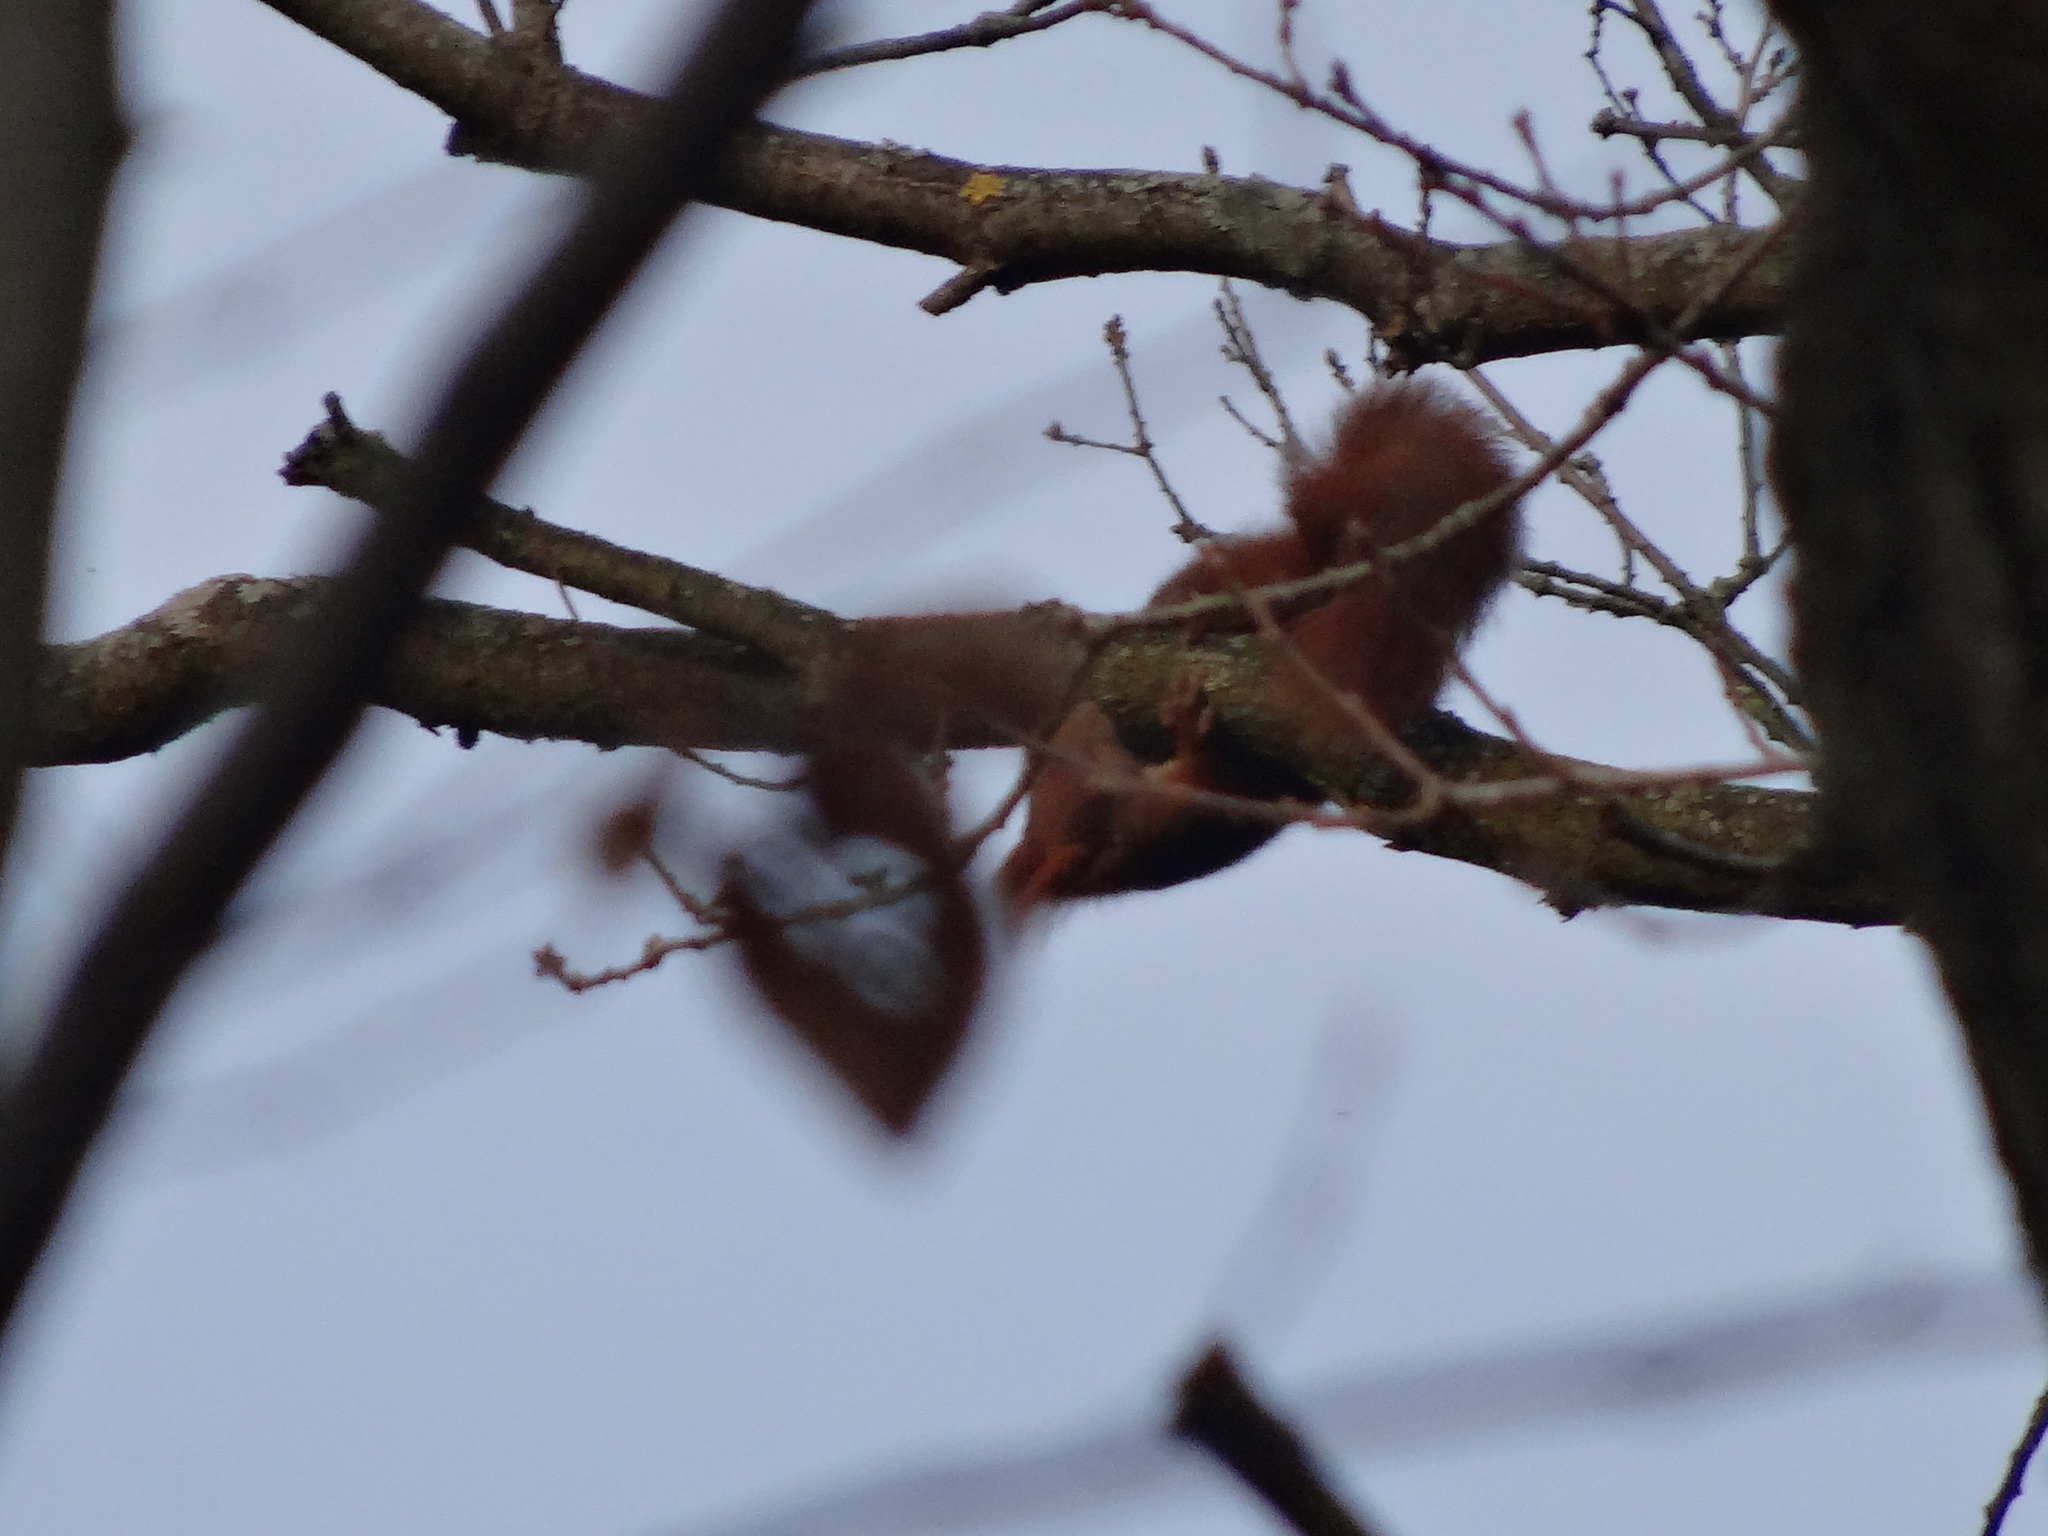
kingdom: Animalia
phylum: Chordata
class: Mammalia
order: Rodentia
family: Sciuridae
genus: Sciurus
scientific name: Sciurus vulgaris
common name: Eurasian red squirrel
